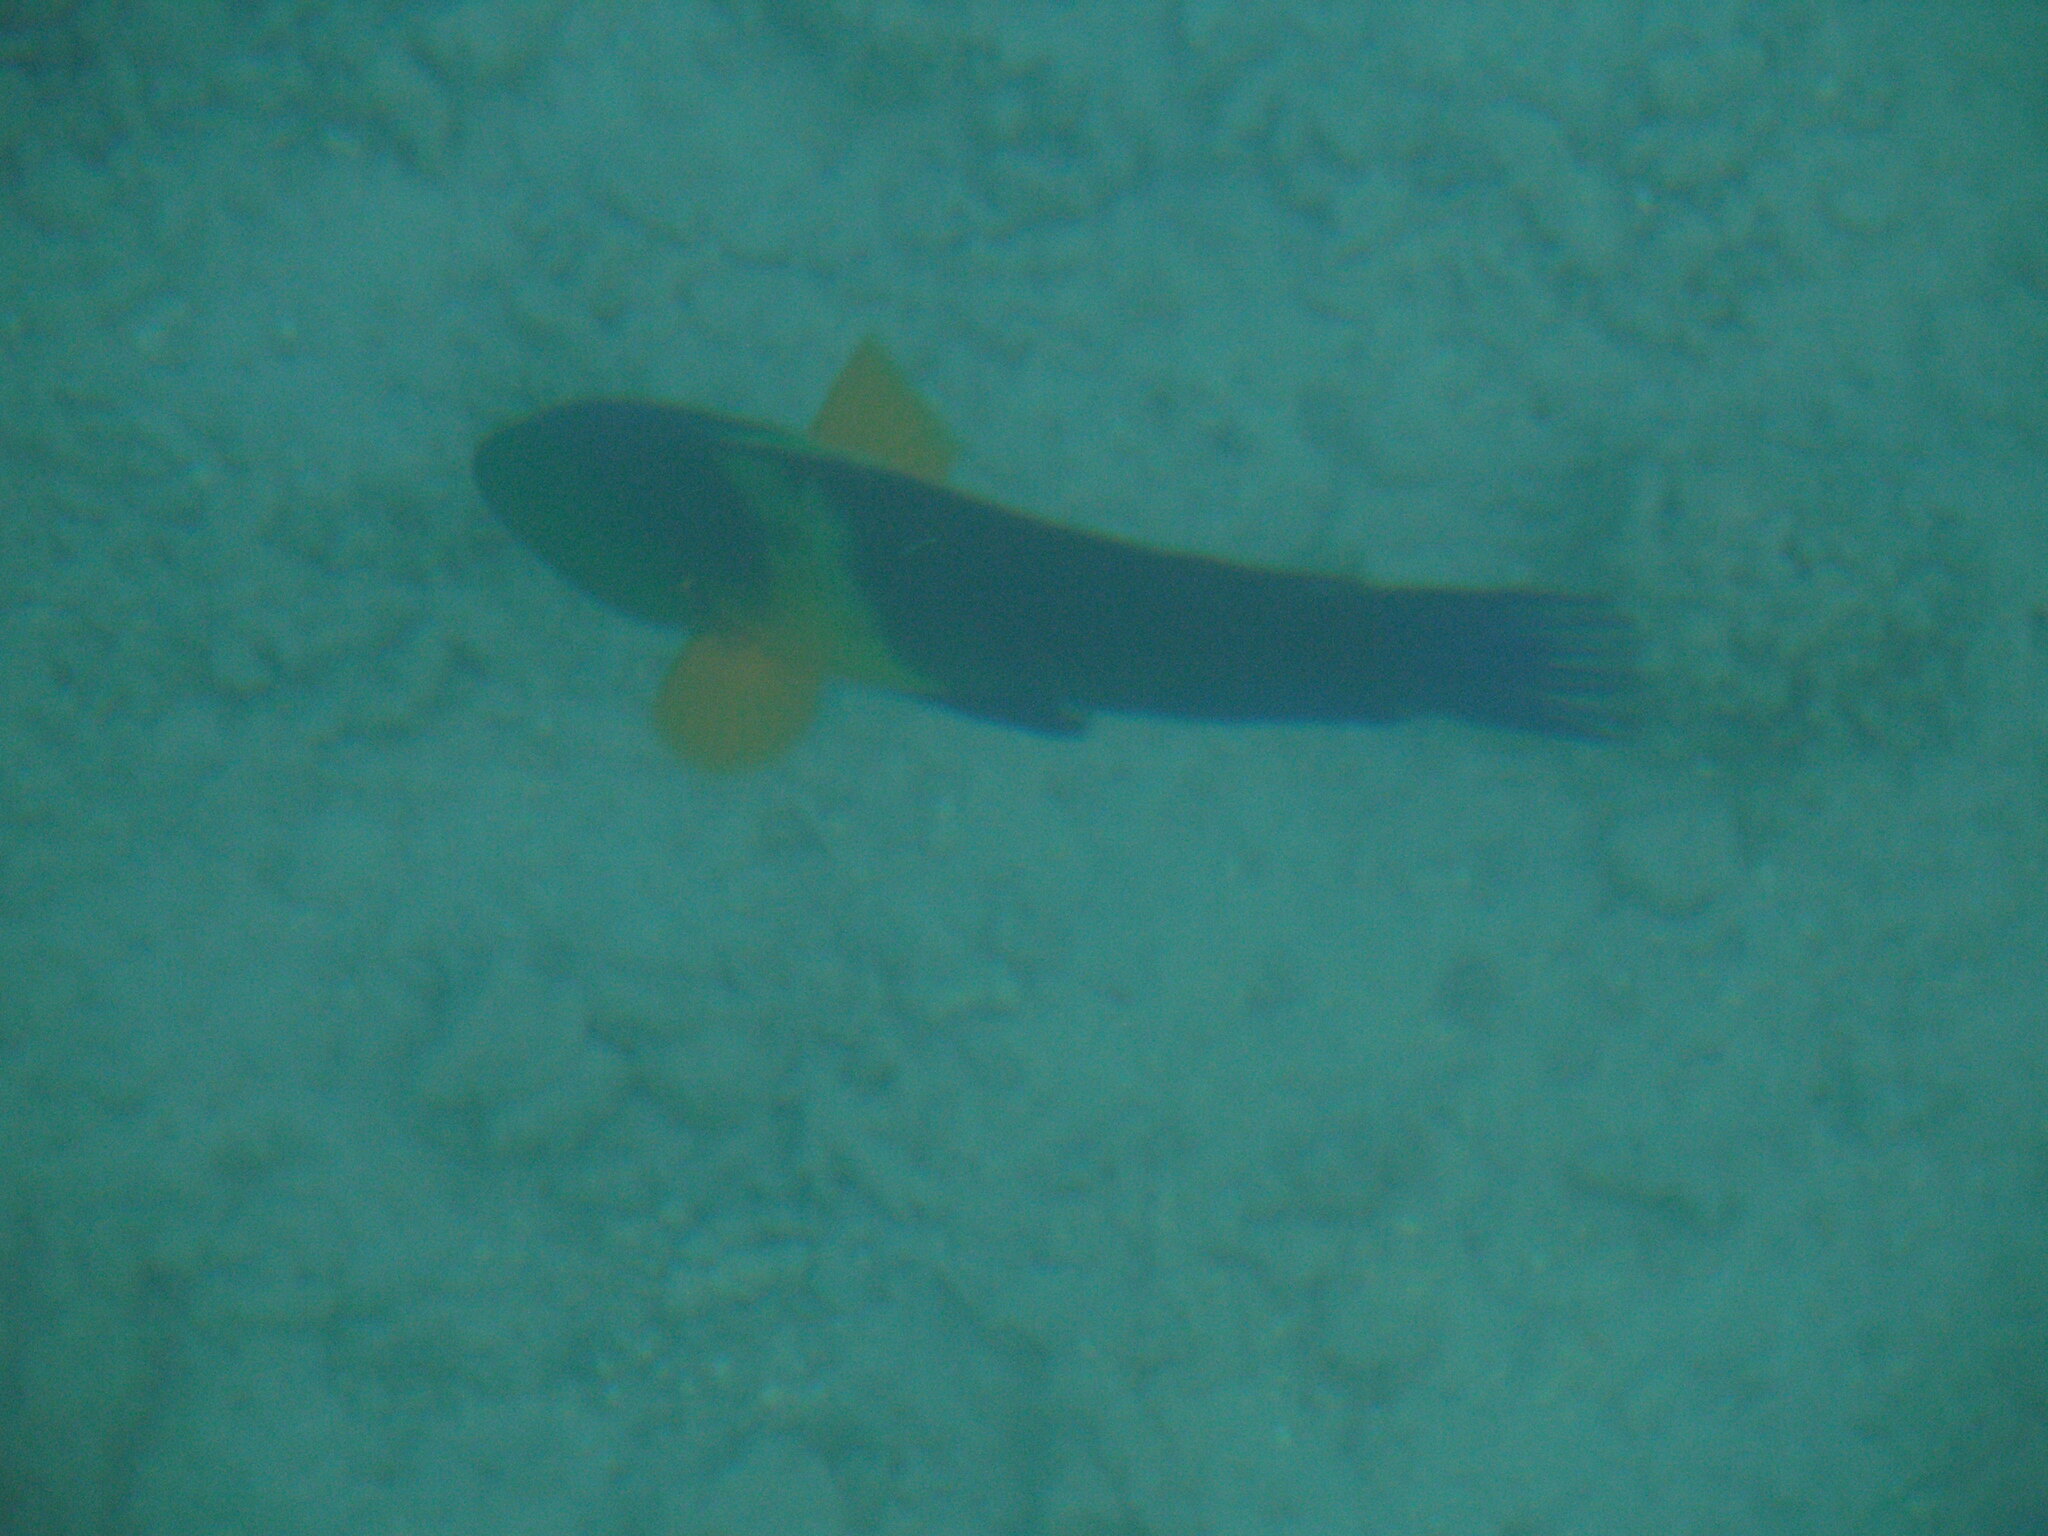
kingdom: Animalia
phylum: Chordata
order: Perciformes
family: Labridae
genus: Cheilinus
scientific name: Cheilinus lunulatus
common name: Broomtail wrasse
